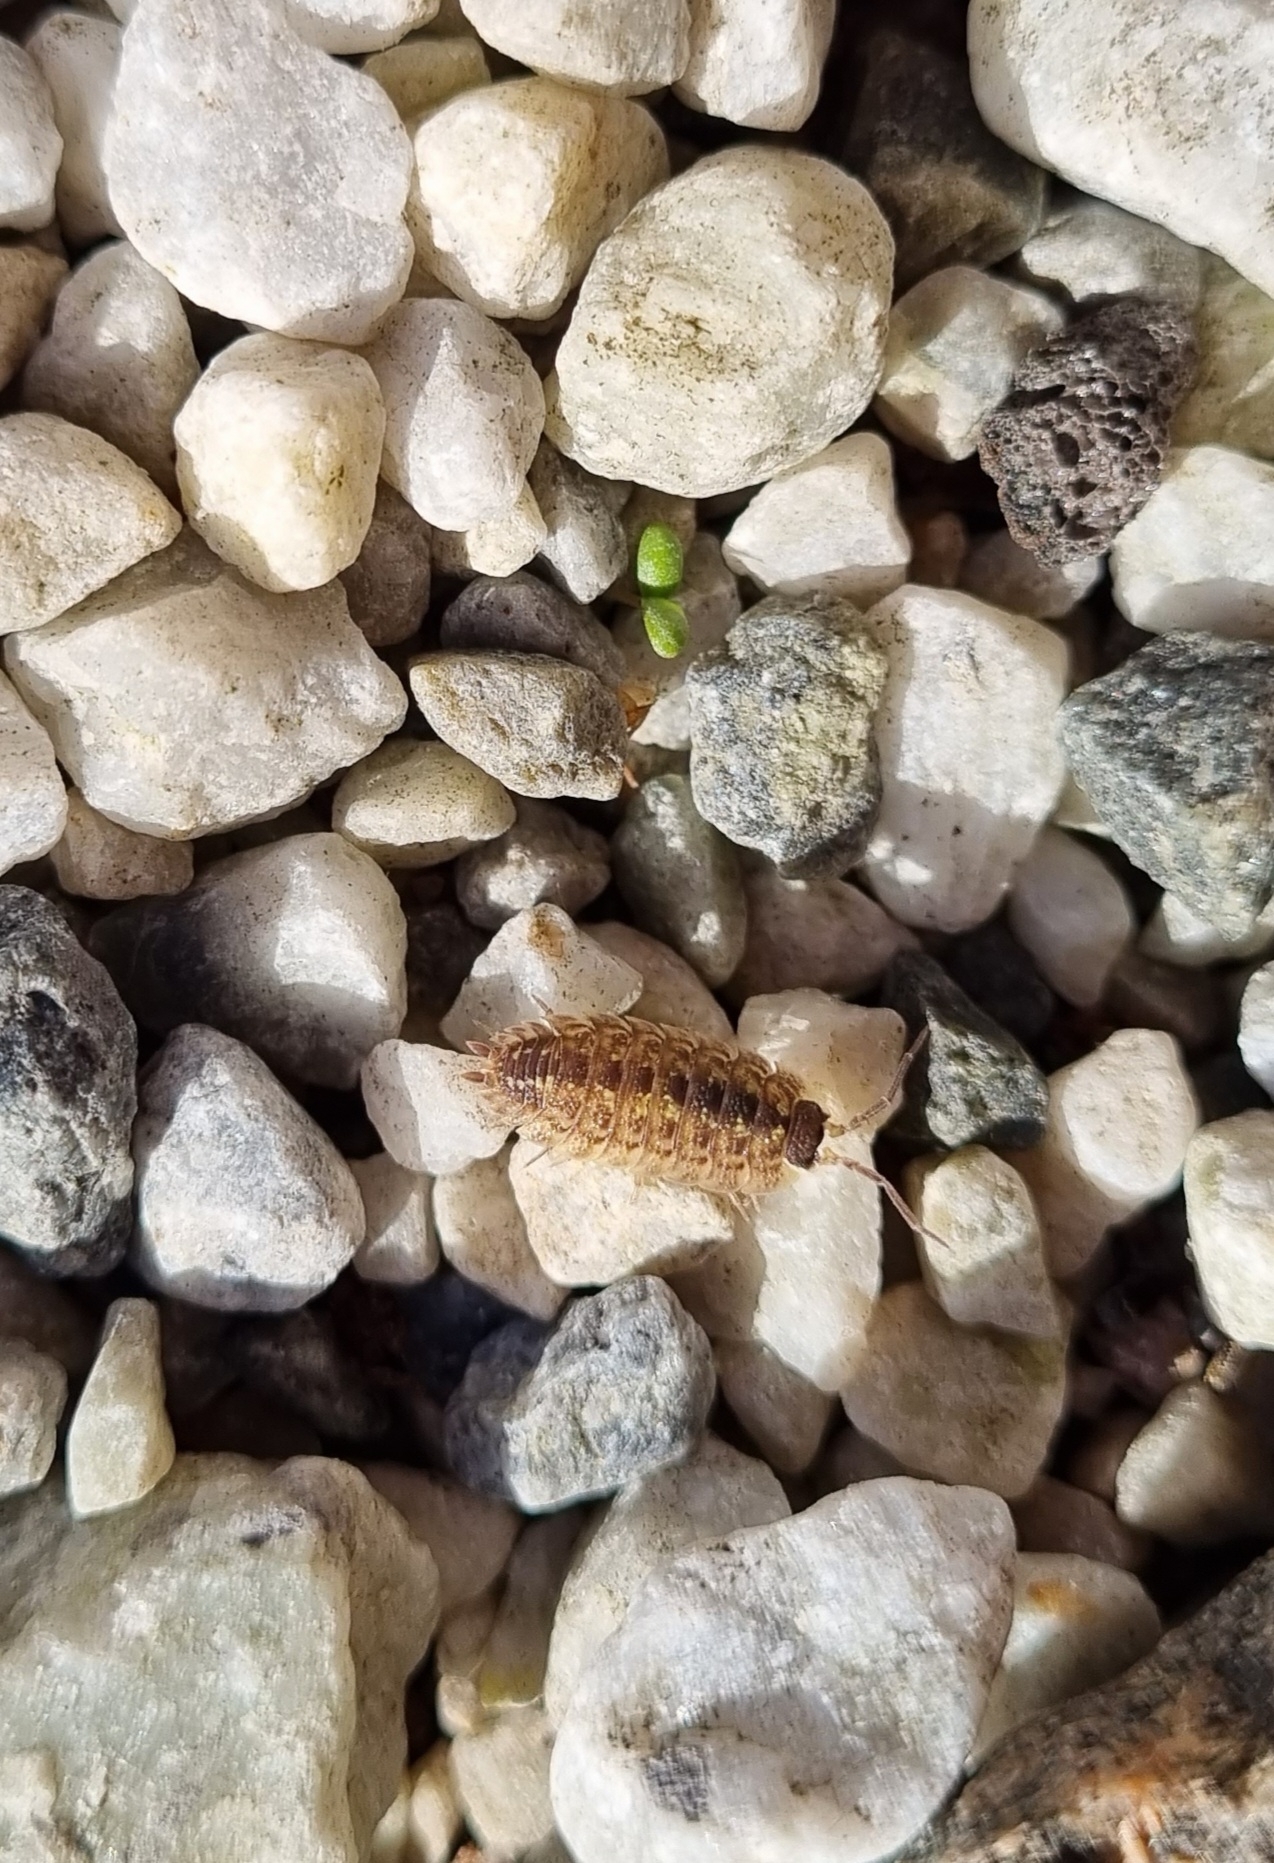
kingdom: Animalia
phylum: Arthropoda
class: Malacostraca
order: Isopoda
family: Porcellionidae
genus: Porcellio
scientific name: Porcellio spinicornis
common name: Painted woodlouse
